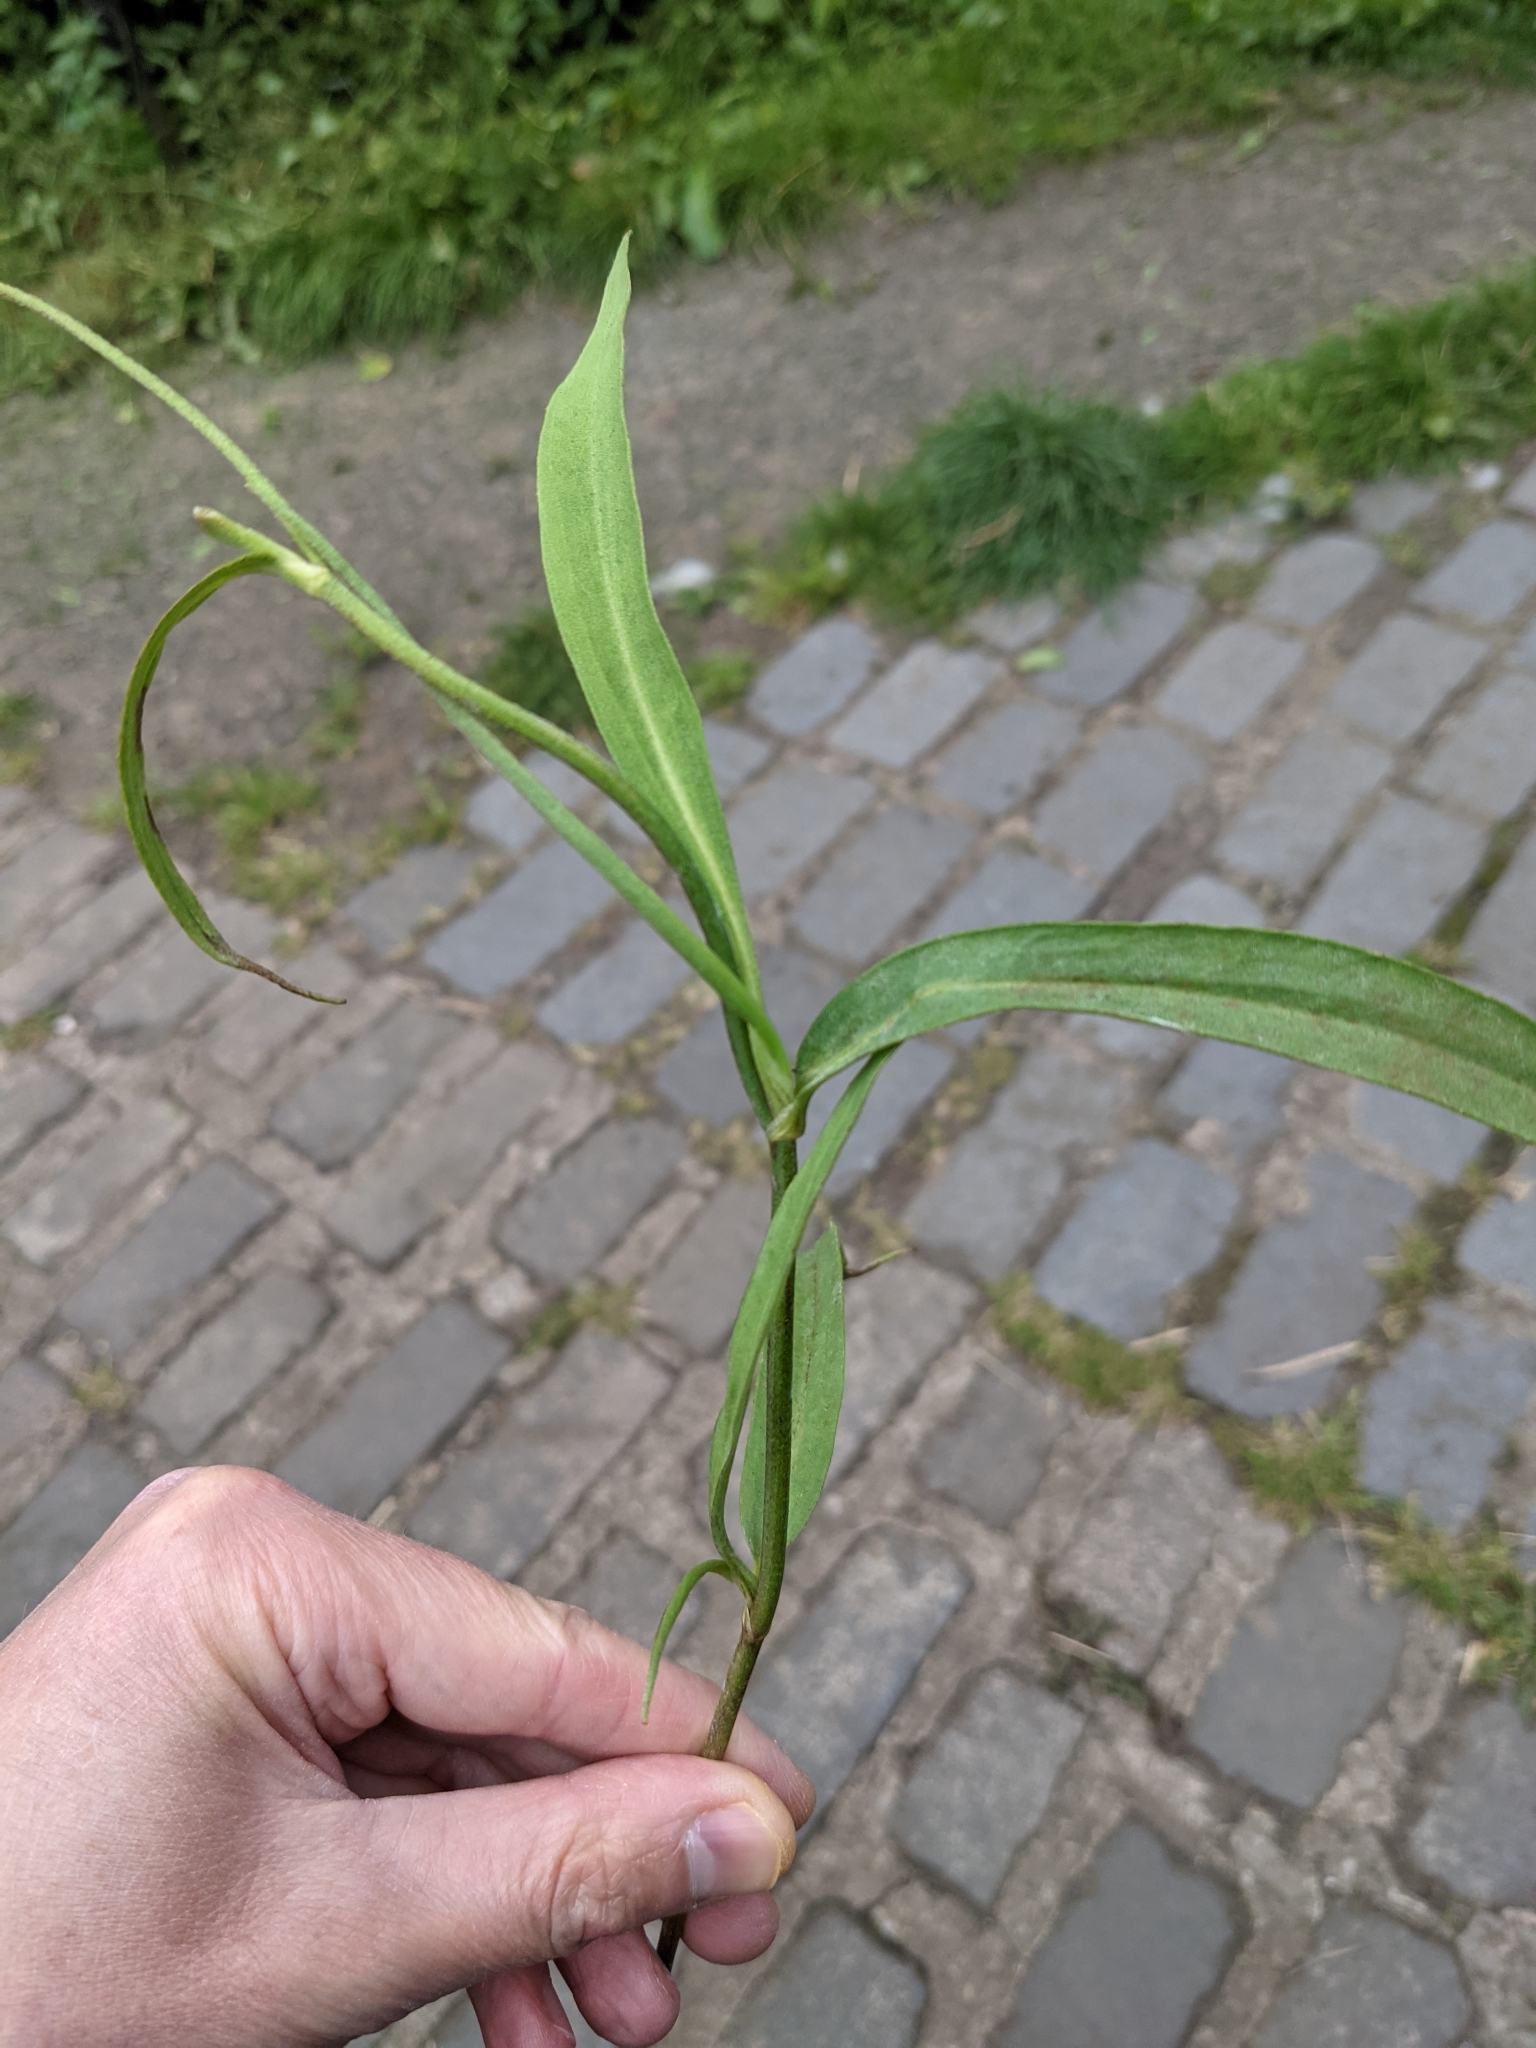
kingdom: Plantae
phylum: Tracheophyta
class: Magnoliopsida
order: Ranunculales
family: Ranunculaceae
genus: Ranunculus
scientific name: Ranunculus lingua
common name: Greater spearwort
